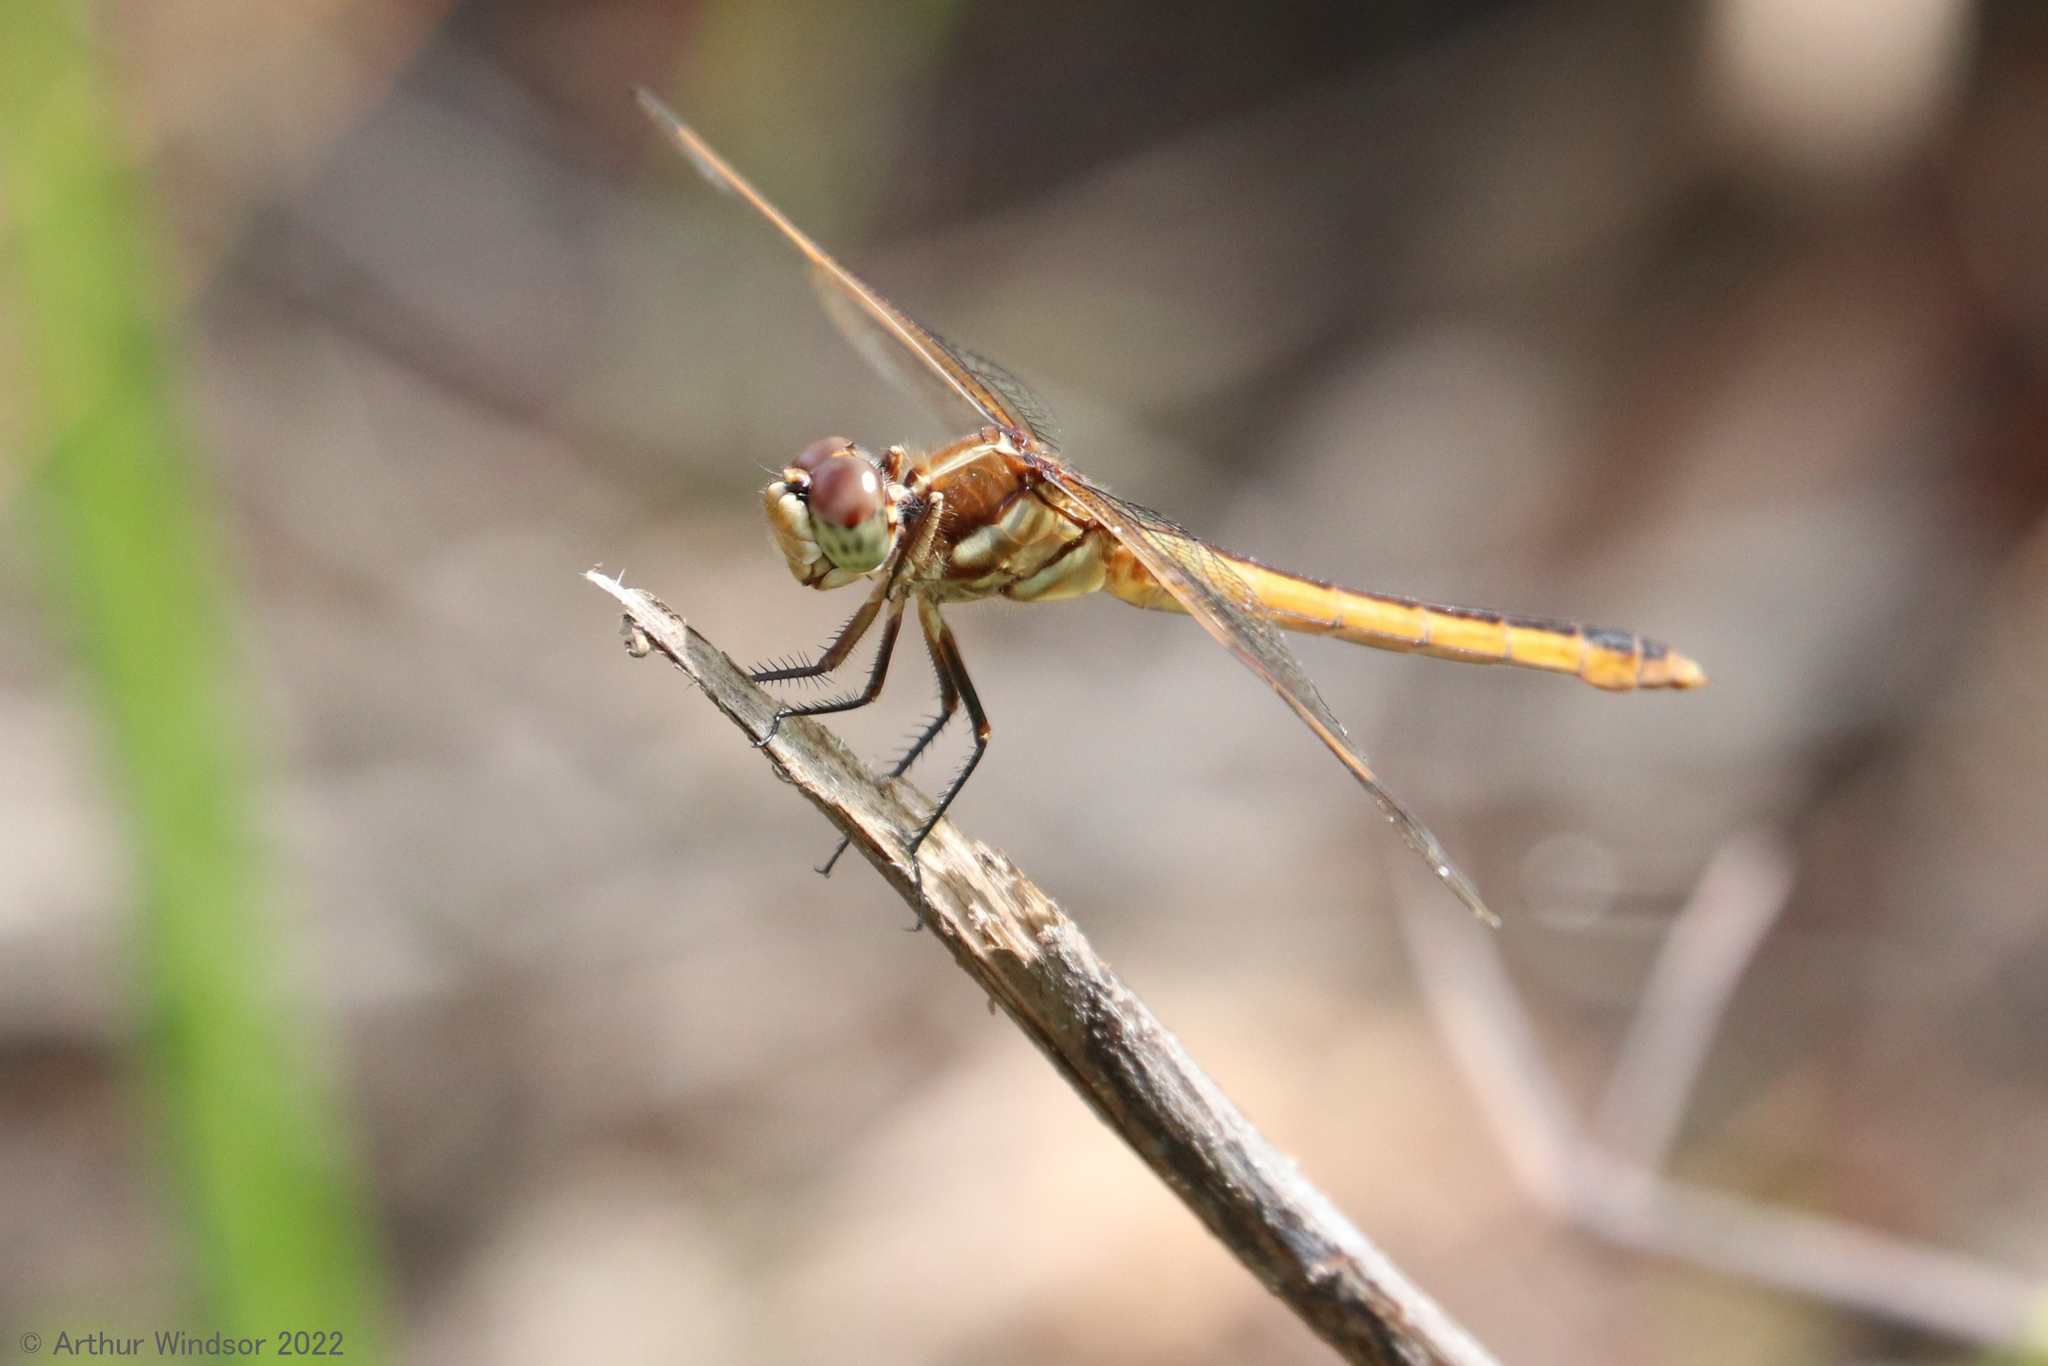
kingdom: Animalia
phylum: Arthropoda
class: Insecta
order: Odonata
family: Libellulidae
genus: Libellula
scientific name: Libellula auripennis
